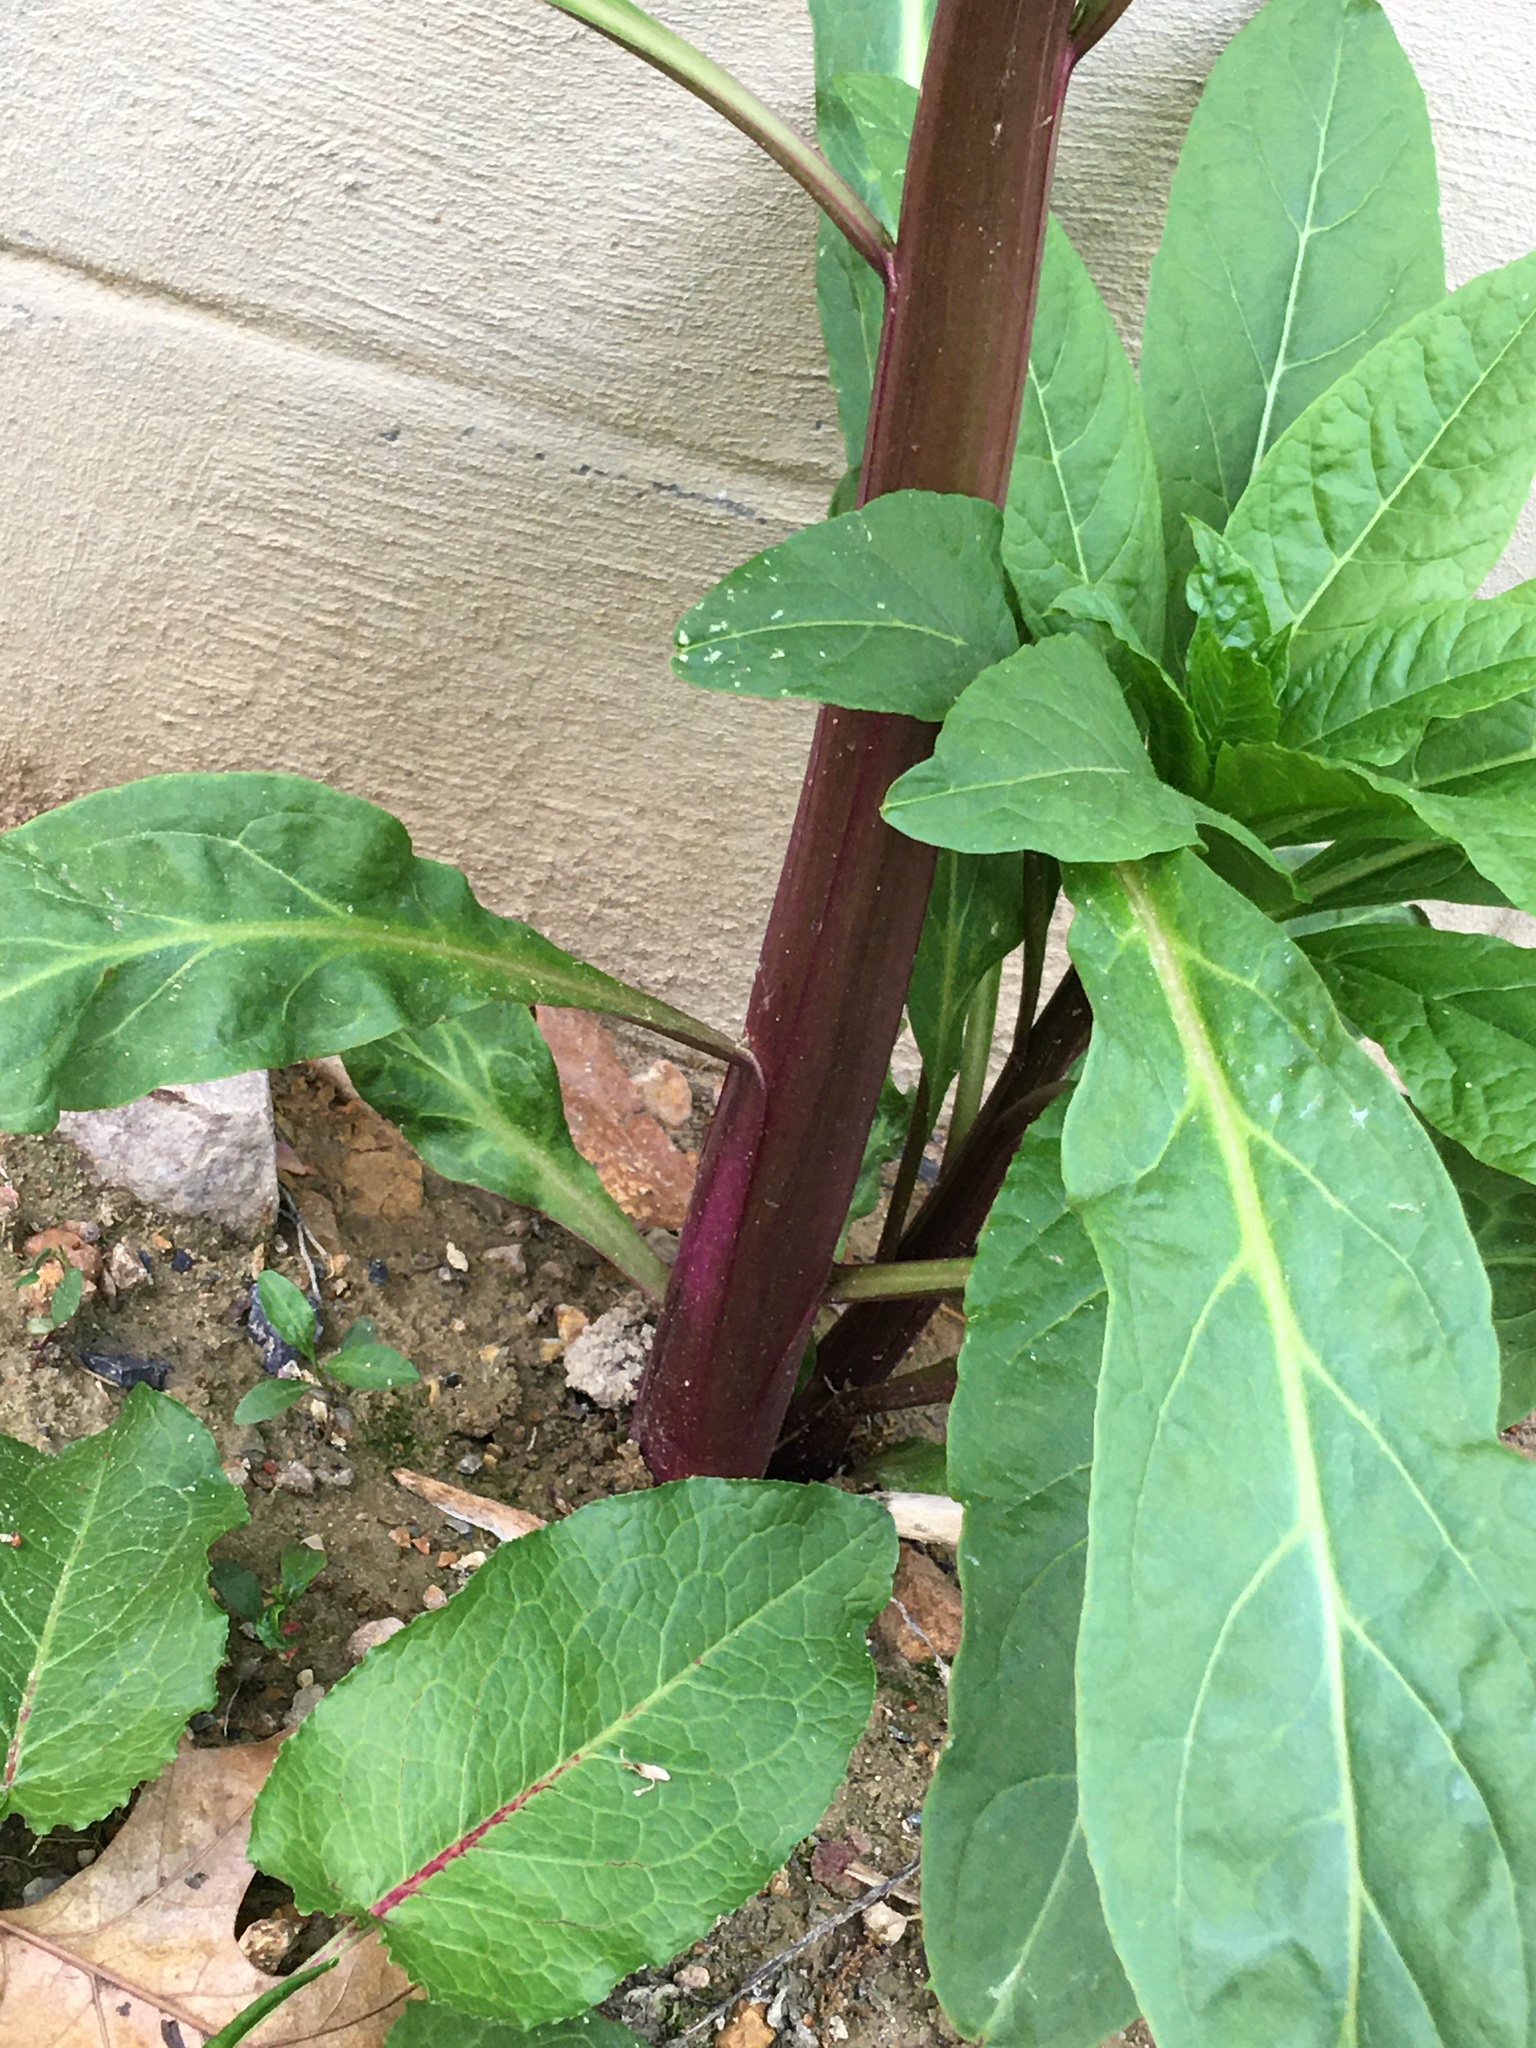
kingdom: Plantae
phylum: Tracheophyta
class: Magnoliopsida
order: Caryophyllales
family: Phytolaccaceae
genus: Phytolacca
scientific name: Phytolacca americana
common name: American pokeweed
